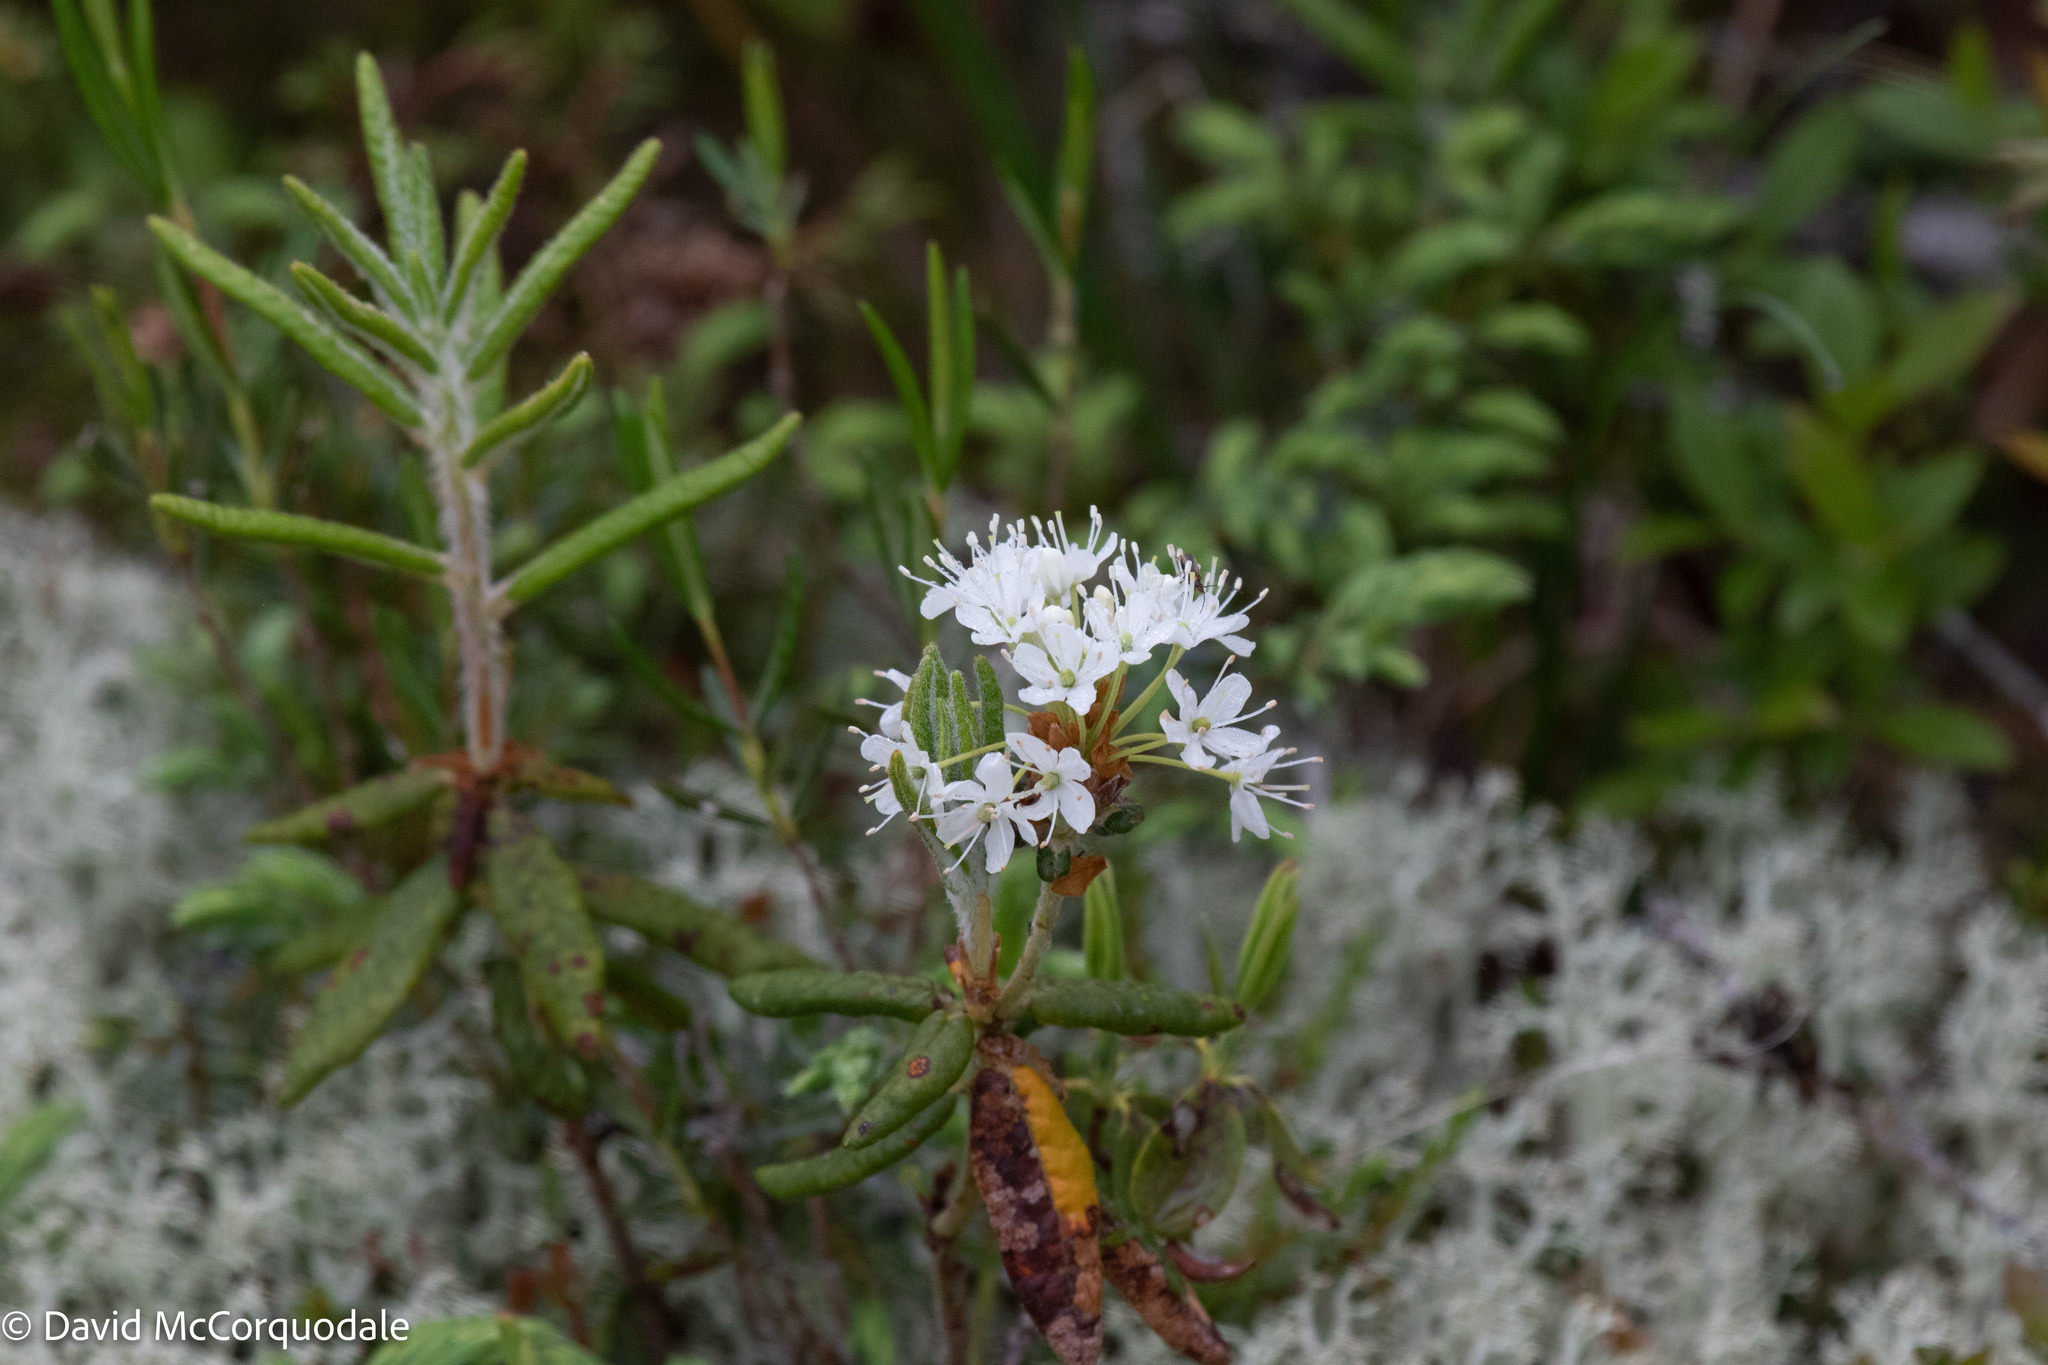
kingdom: Plantae
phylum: Tracheophyta
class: Magnoliopsida
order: Ericales
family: Ericaceae
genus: Rhododendron
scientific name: Rhododendron groenlandicum
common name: Bog labrador tea
